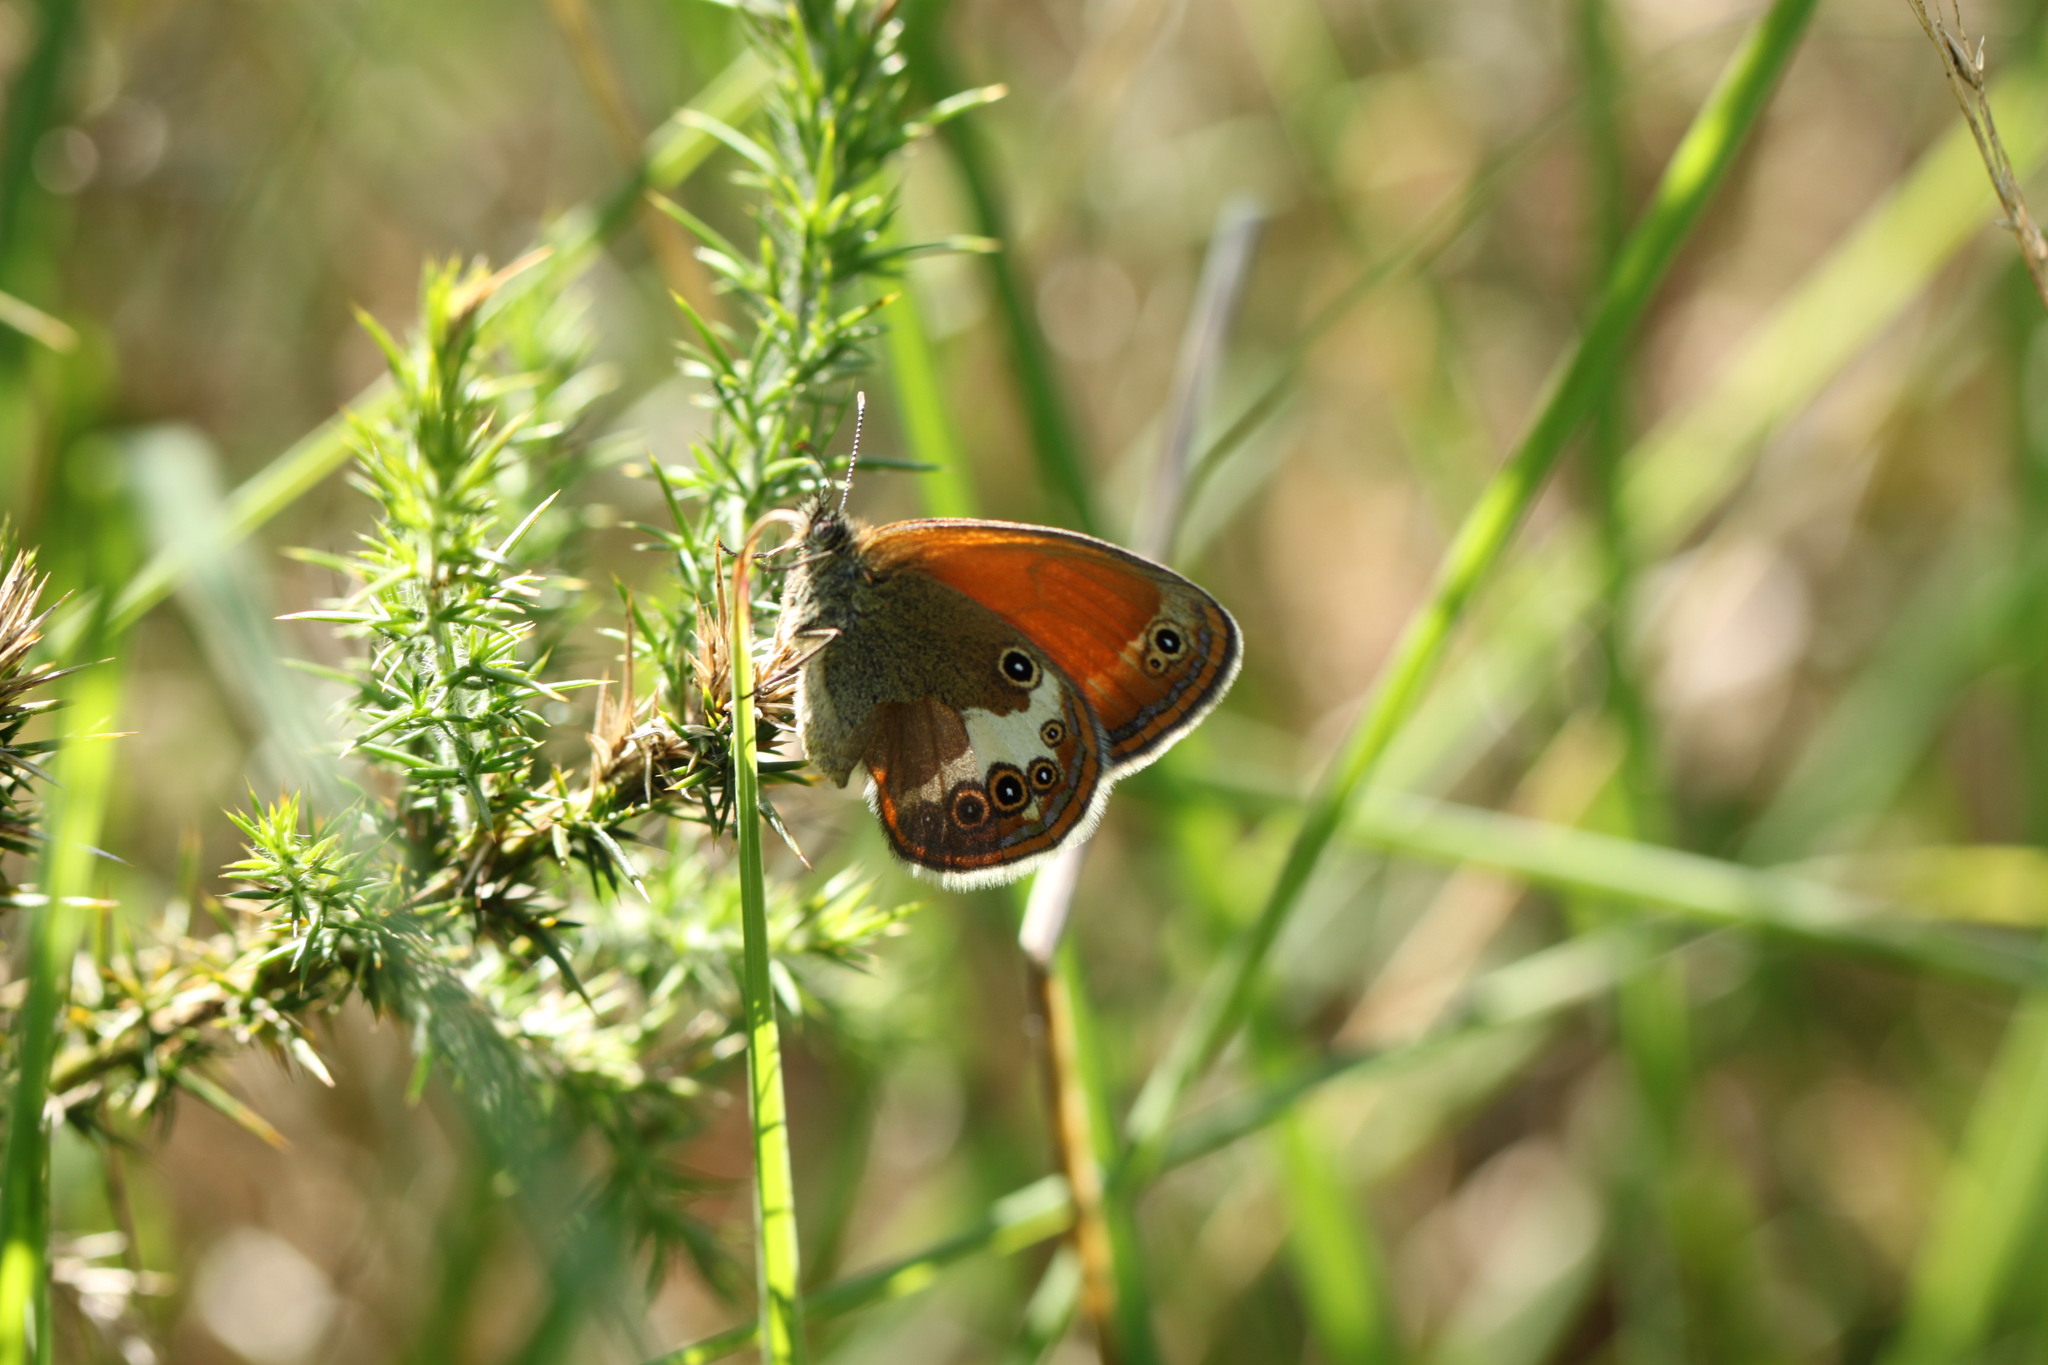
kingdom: Animalia
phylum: Arthropoda
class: Insecta
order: Lepidoptera
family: Nymphalidae
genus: Coenonympha
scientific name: Coenonympha arcania
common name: Pearly heath
